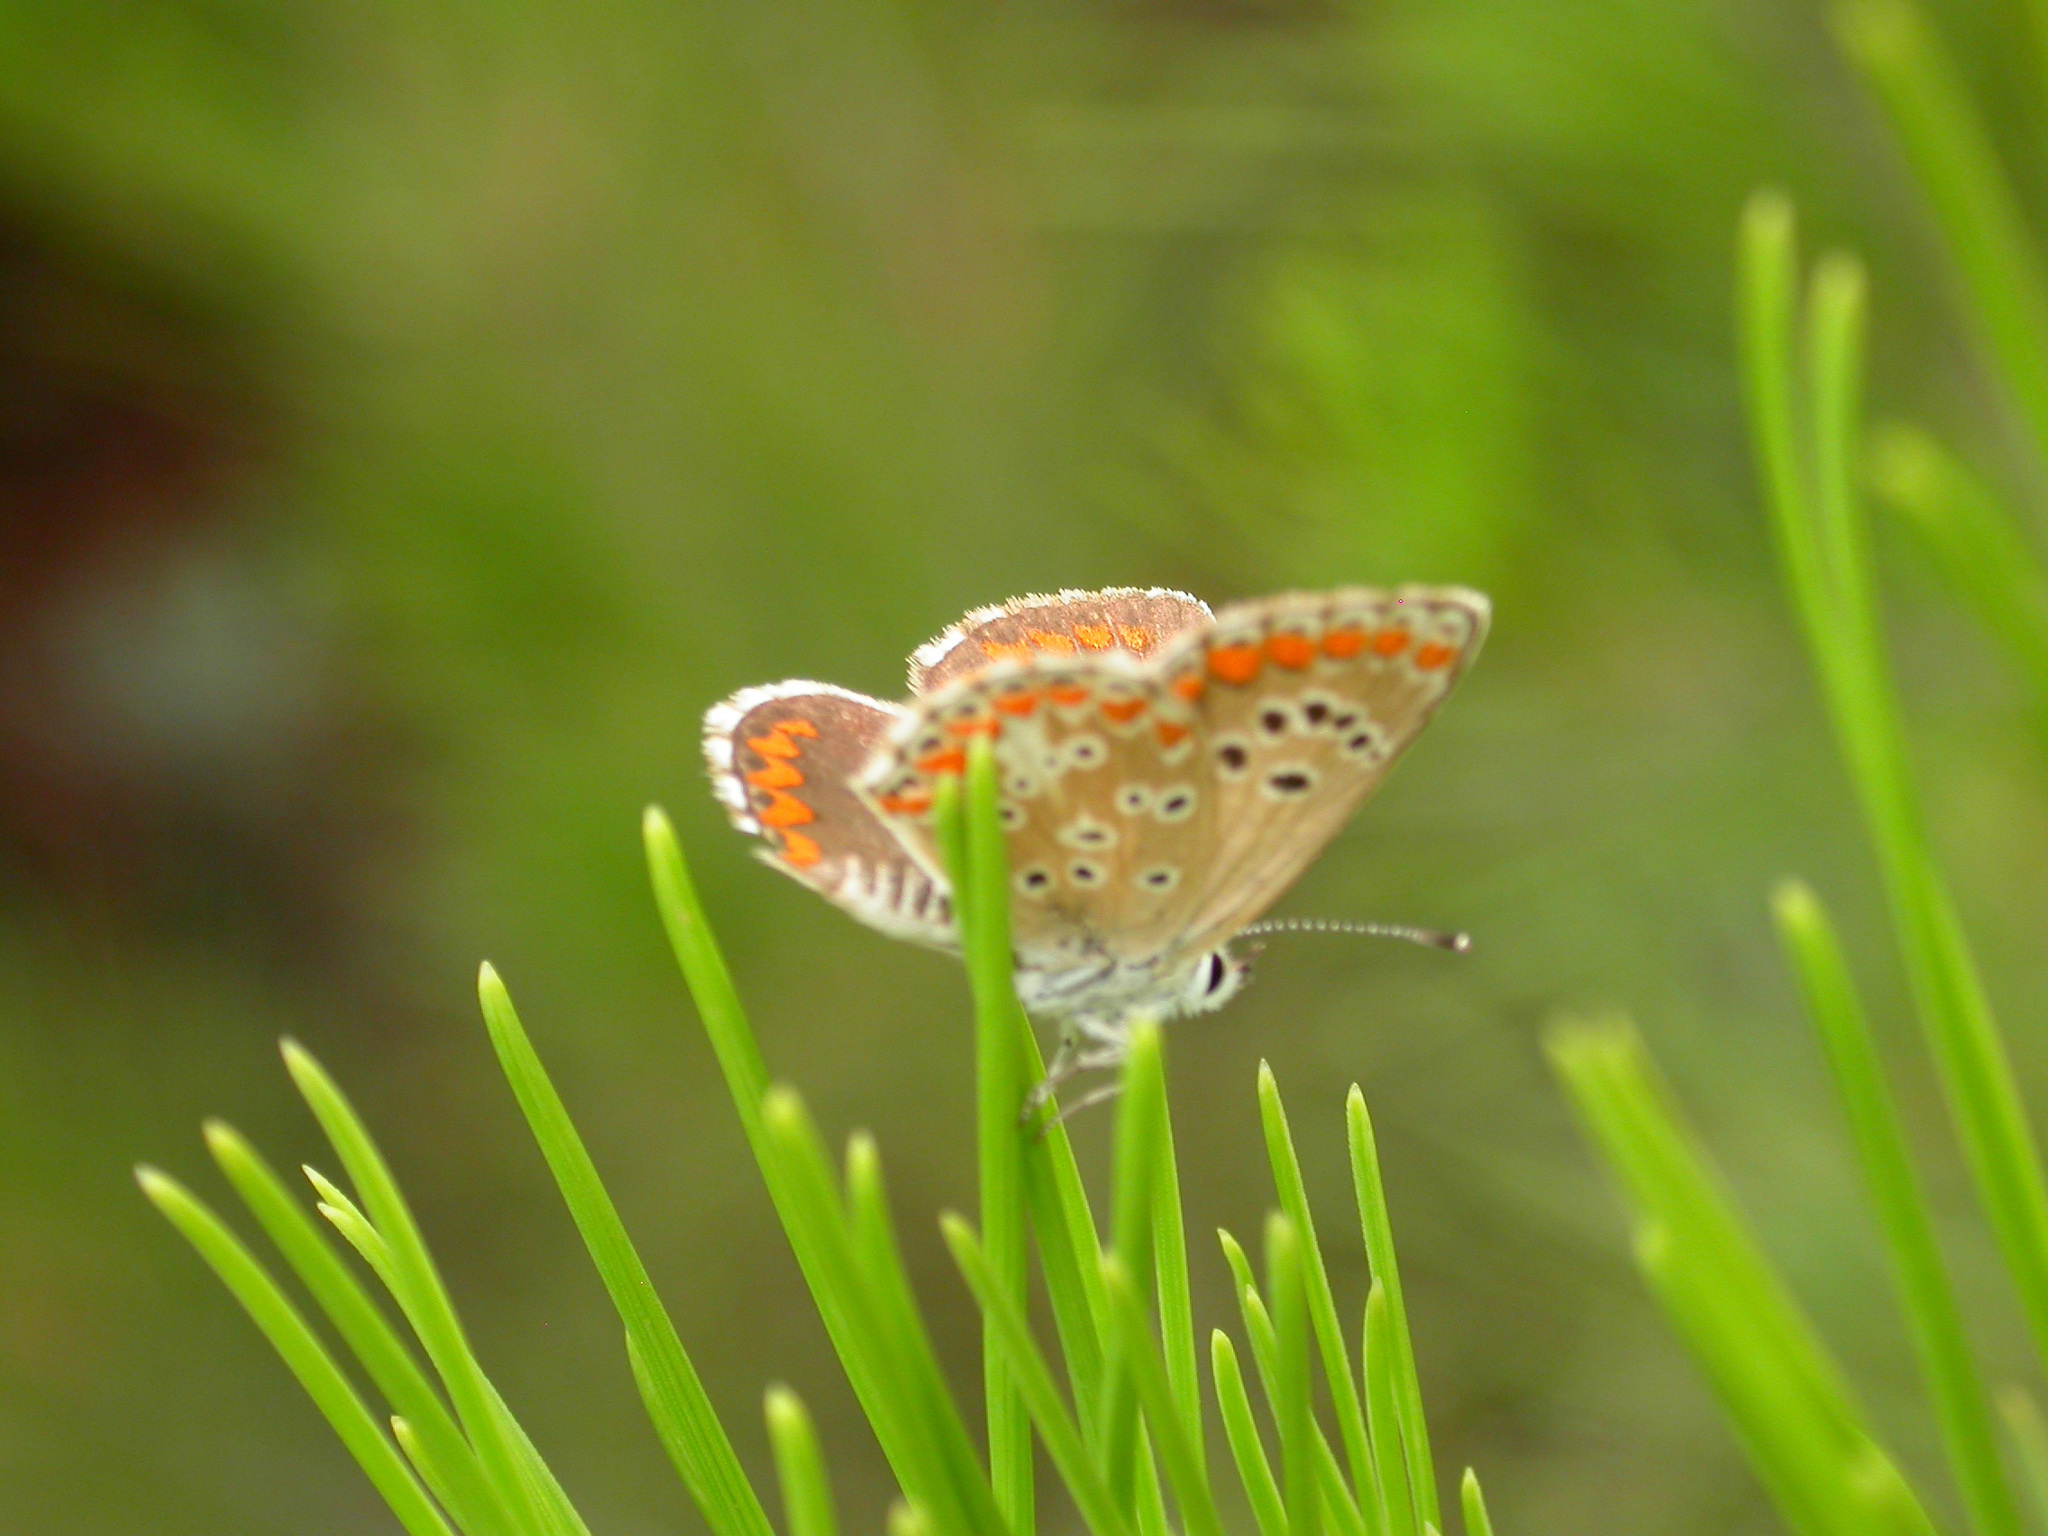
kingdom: Animalia
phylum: Arthropoda
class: Insecta
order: Lepidoptera
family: Lycaenidae
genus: Aricia
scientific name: Aricia agestis
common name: Brown argus
